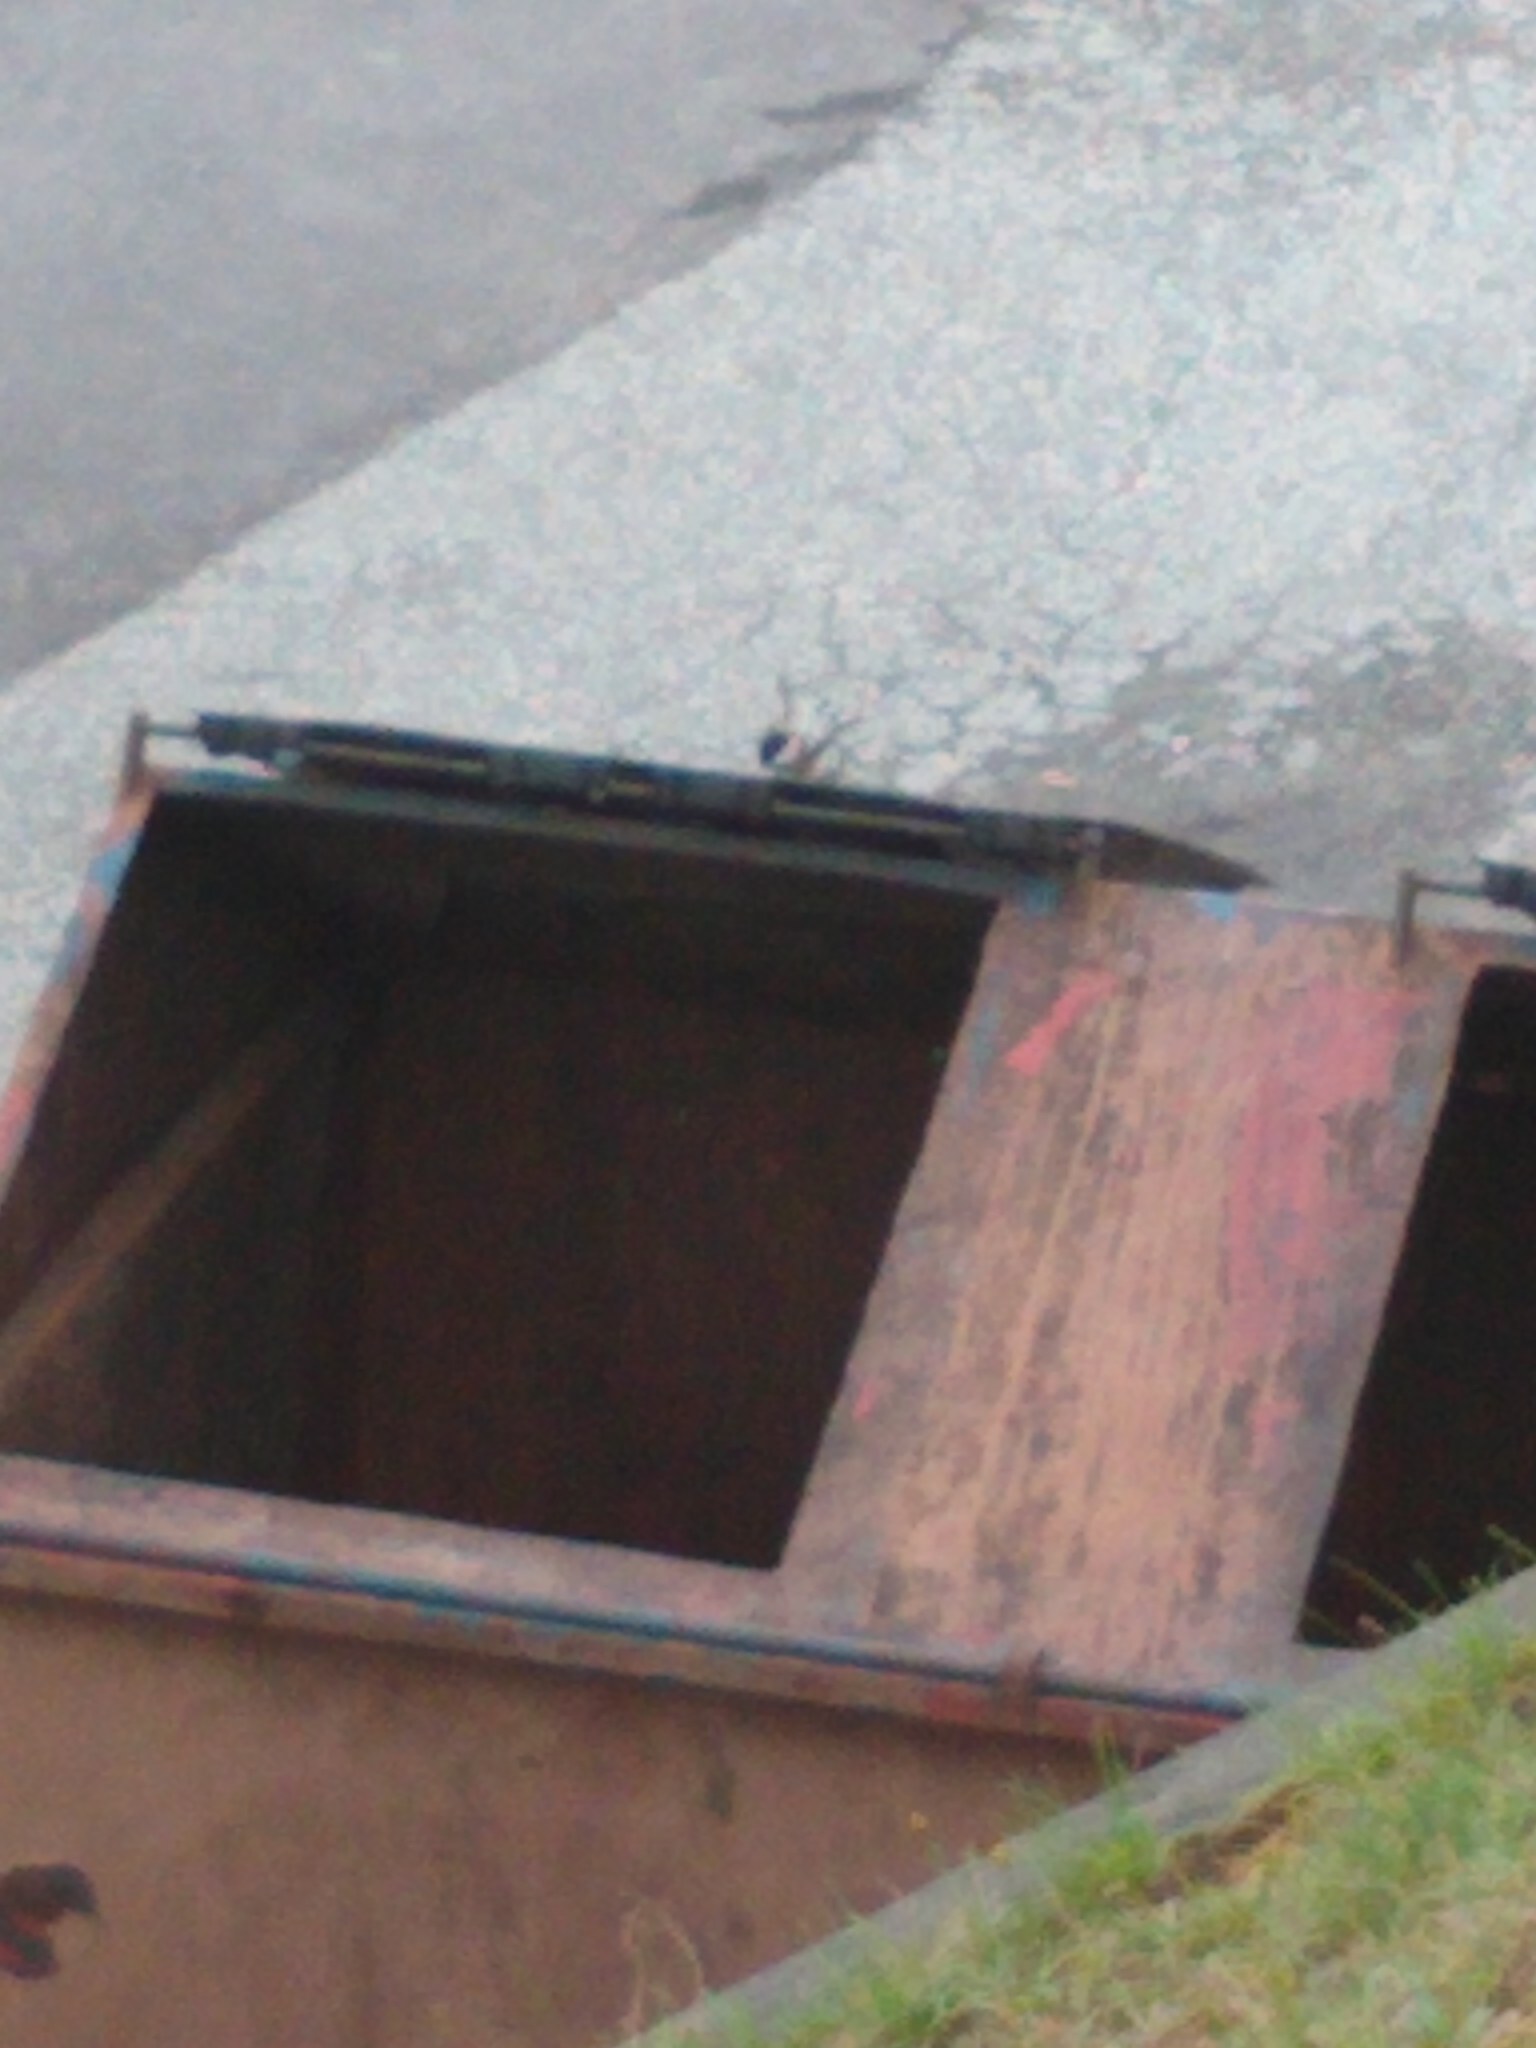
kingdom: Animalia
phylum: Chordata
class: Aves
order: Passeriformes
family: Paridae
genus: Poecile
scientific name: Poecile atricapillus
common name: Black-capped chickadee
